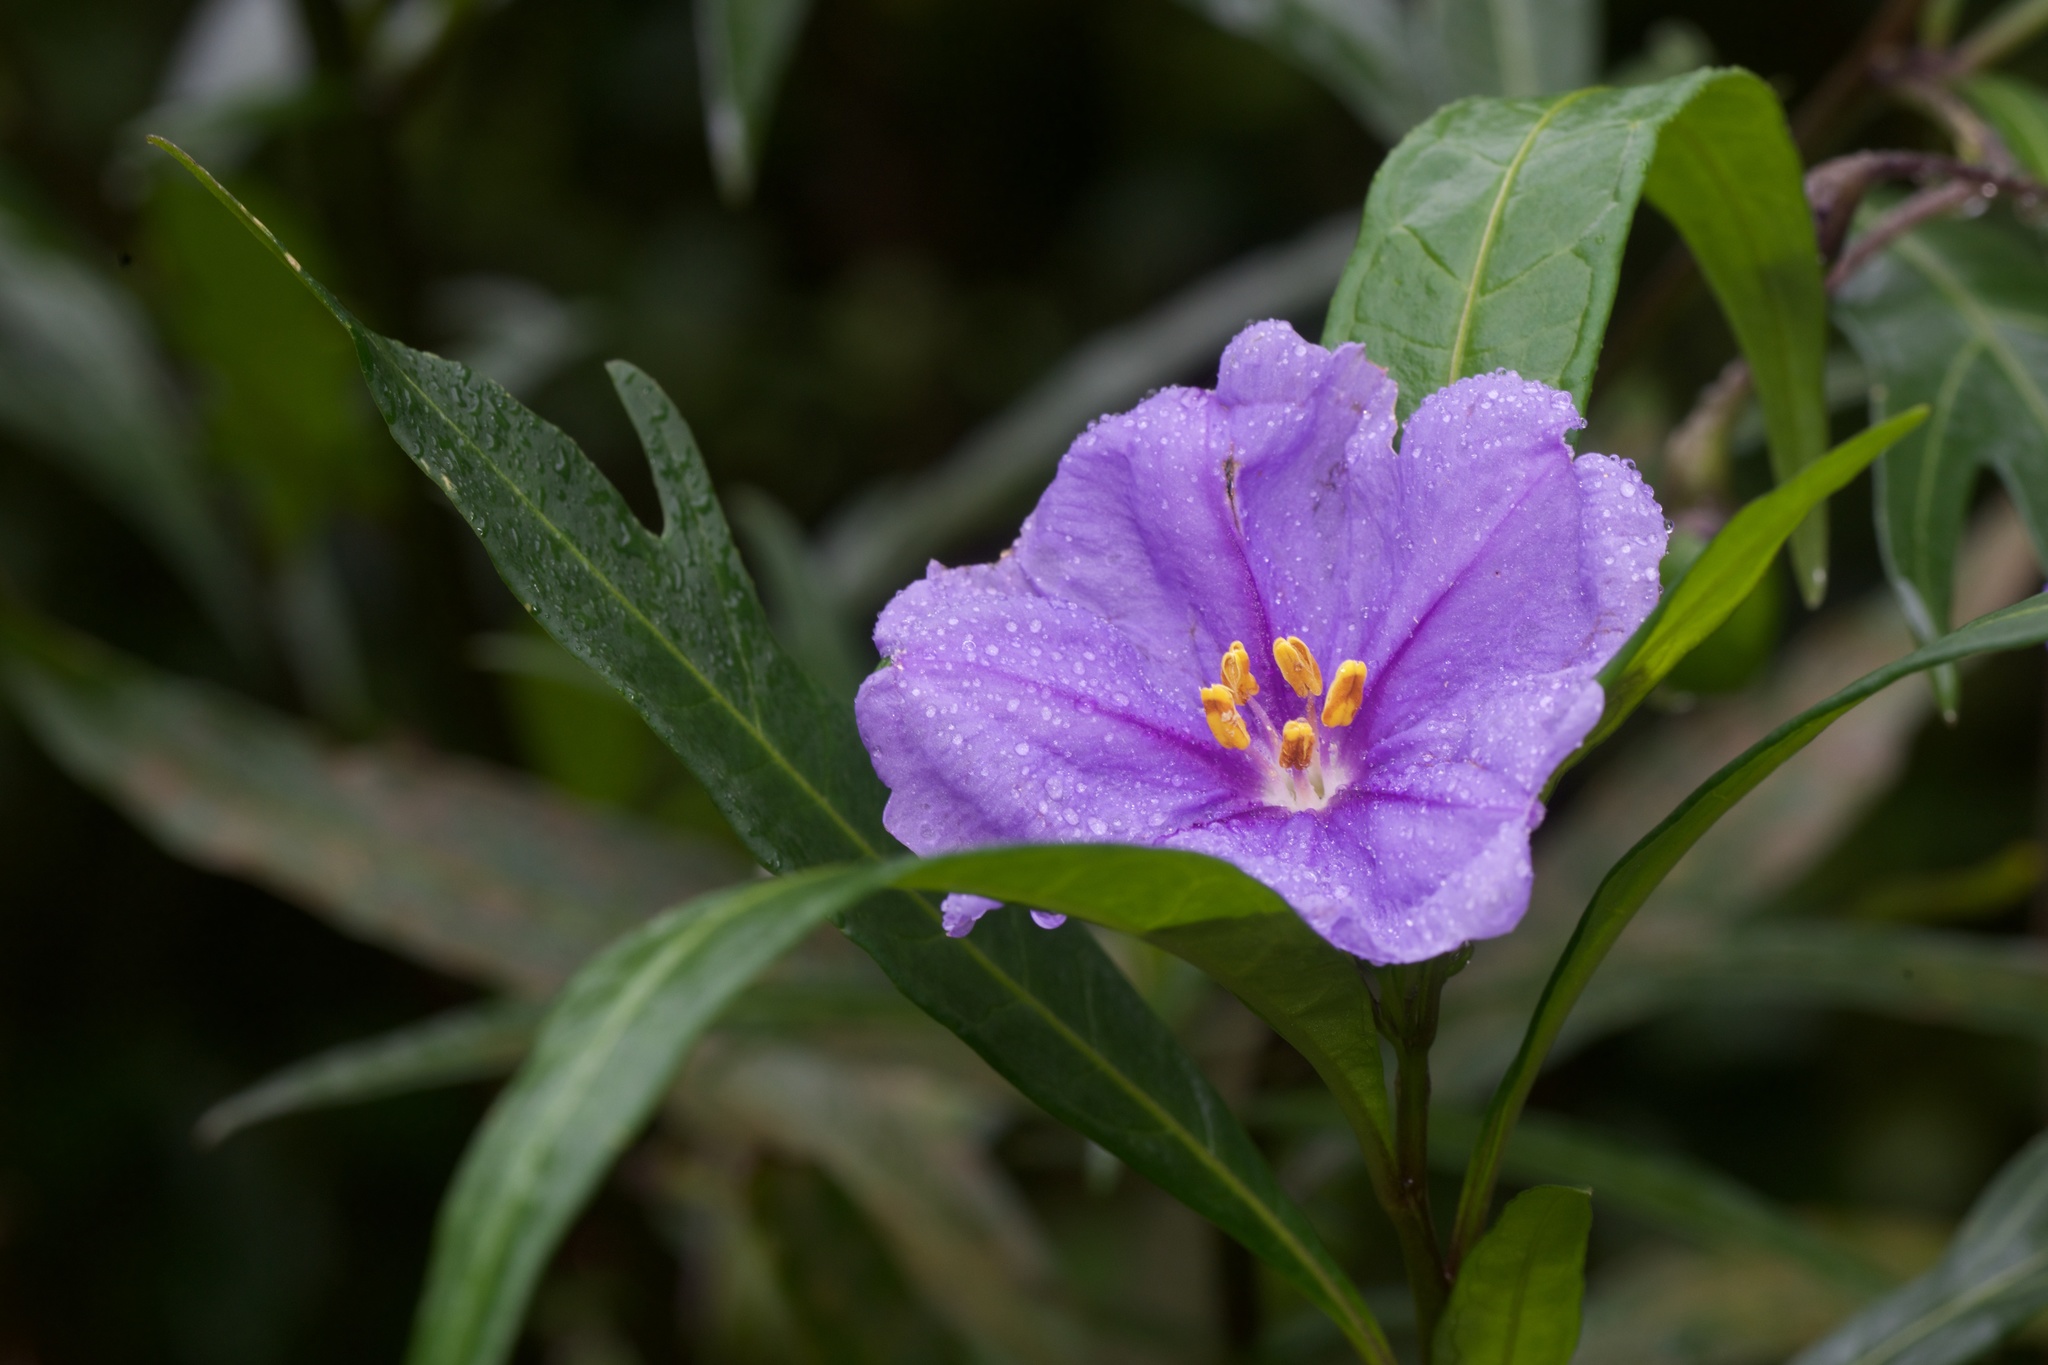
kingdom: Plantae
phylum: Tracheophyta
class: Magnoliopsida
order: Solanales
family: Solanaceae
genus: Solanum
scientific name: Solanum laciniatum
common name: Kangaroo-apple
